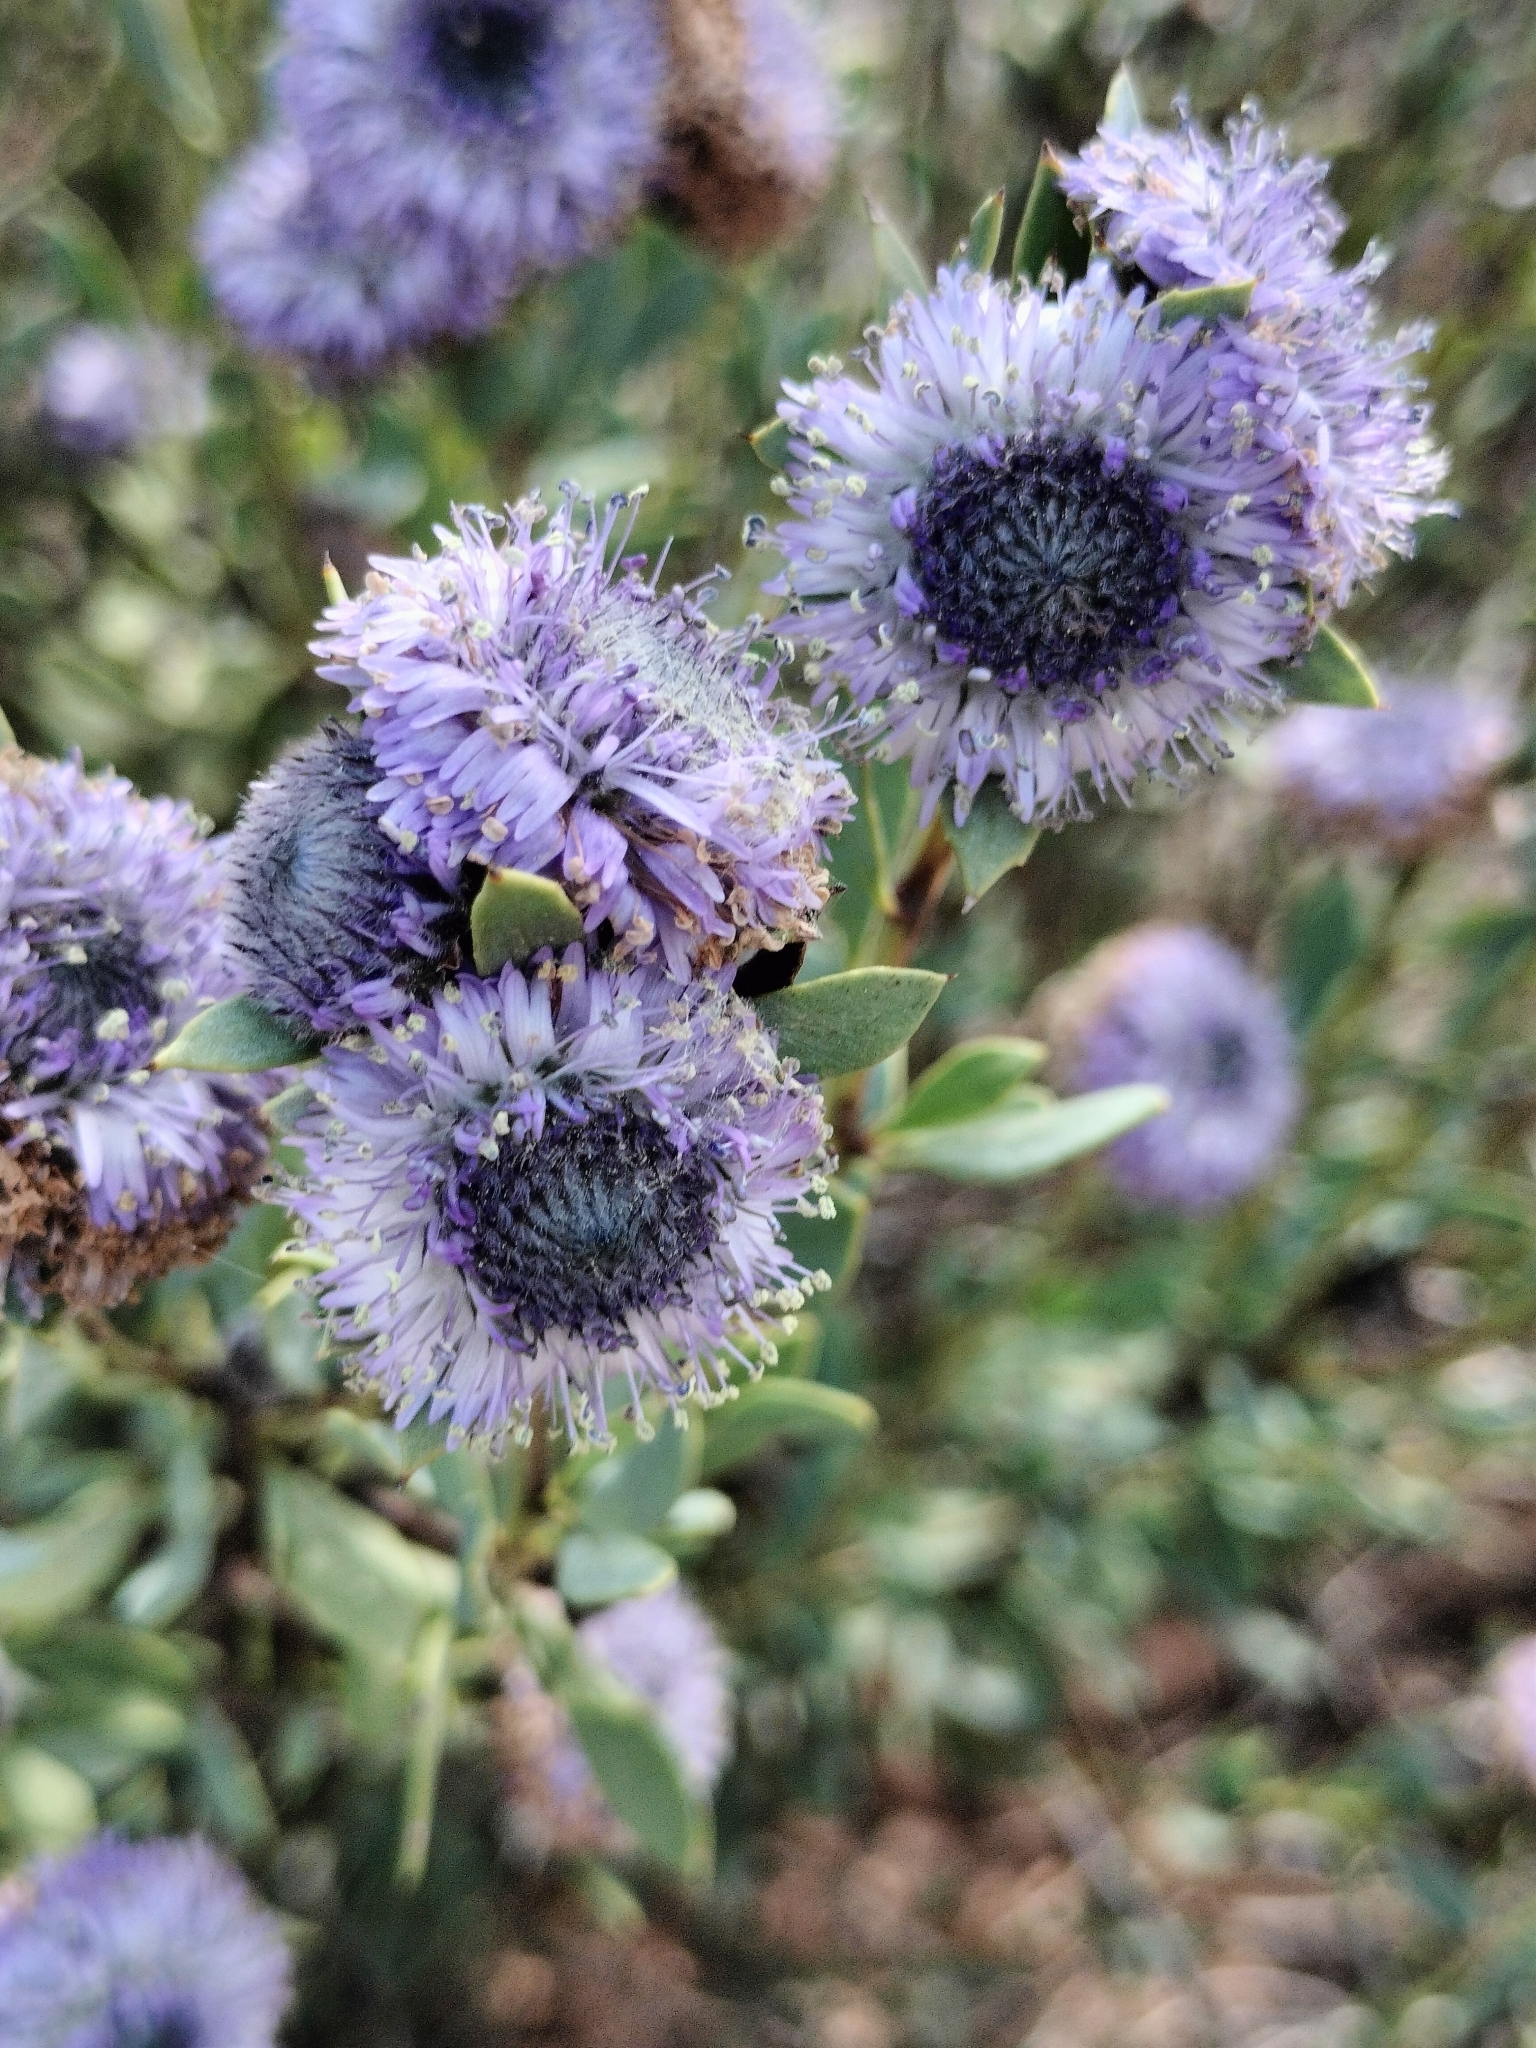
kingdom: Plantae
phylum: Tracheophyta
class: Magnoliopsida
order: Lamiales
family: Plantaginaceae
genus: Globularia
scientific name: Globularia alypum
